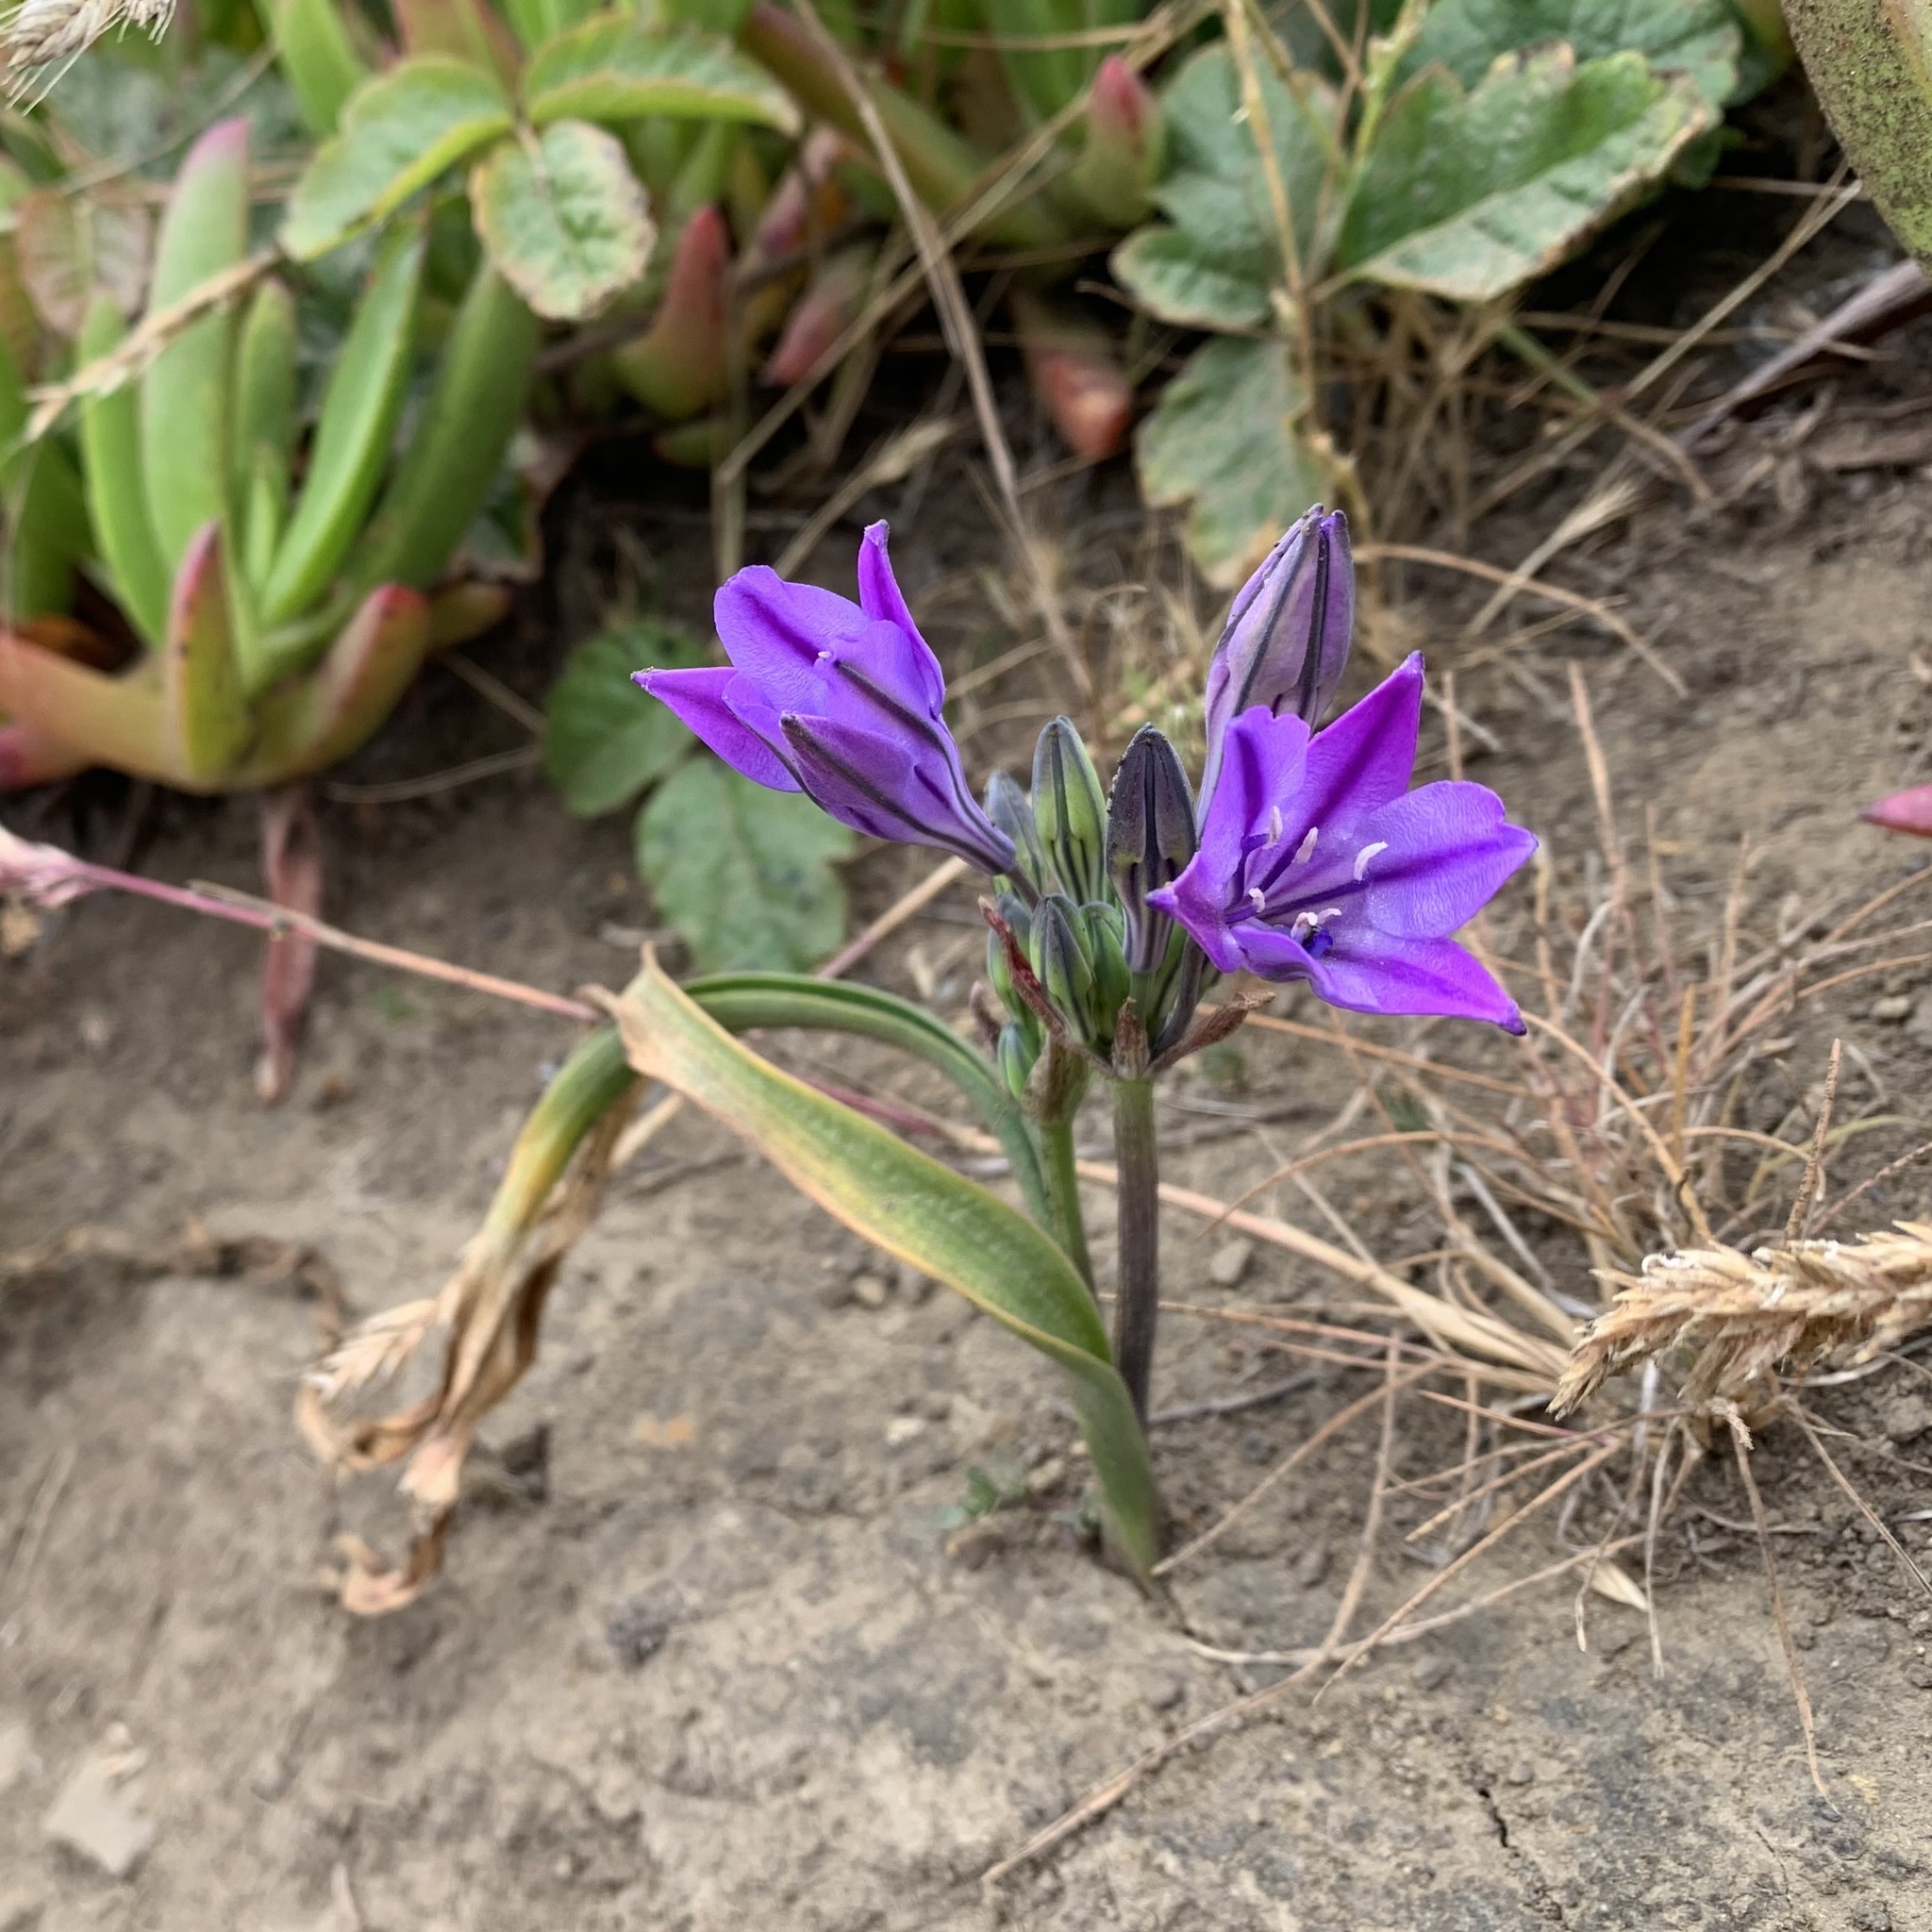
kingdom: Plantae
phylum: Tracheophyta
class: Liliopsida
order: Asparagales
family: Asparagaceae
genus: Triteleia
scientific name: Triteleia laxa
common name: Triplet-lily
